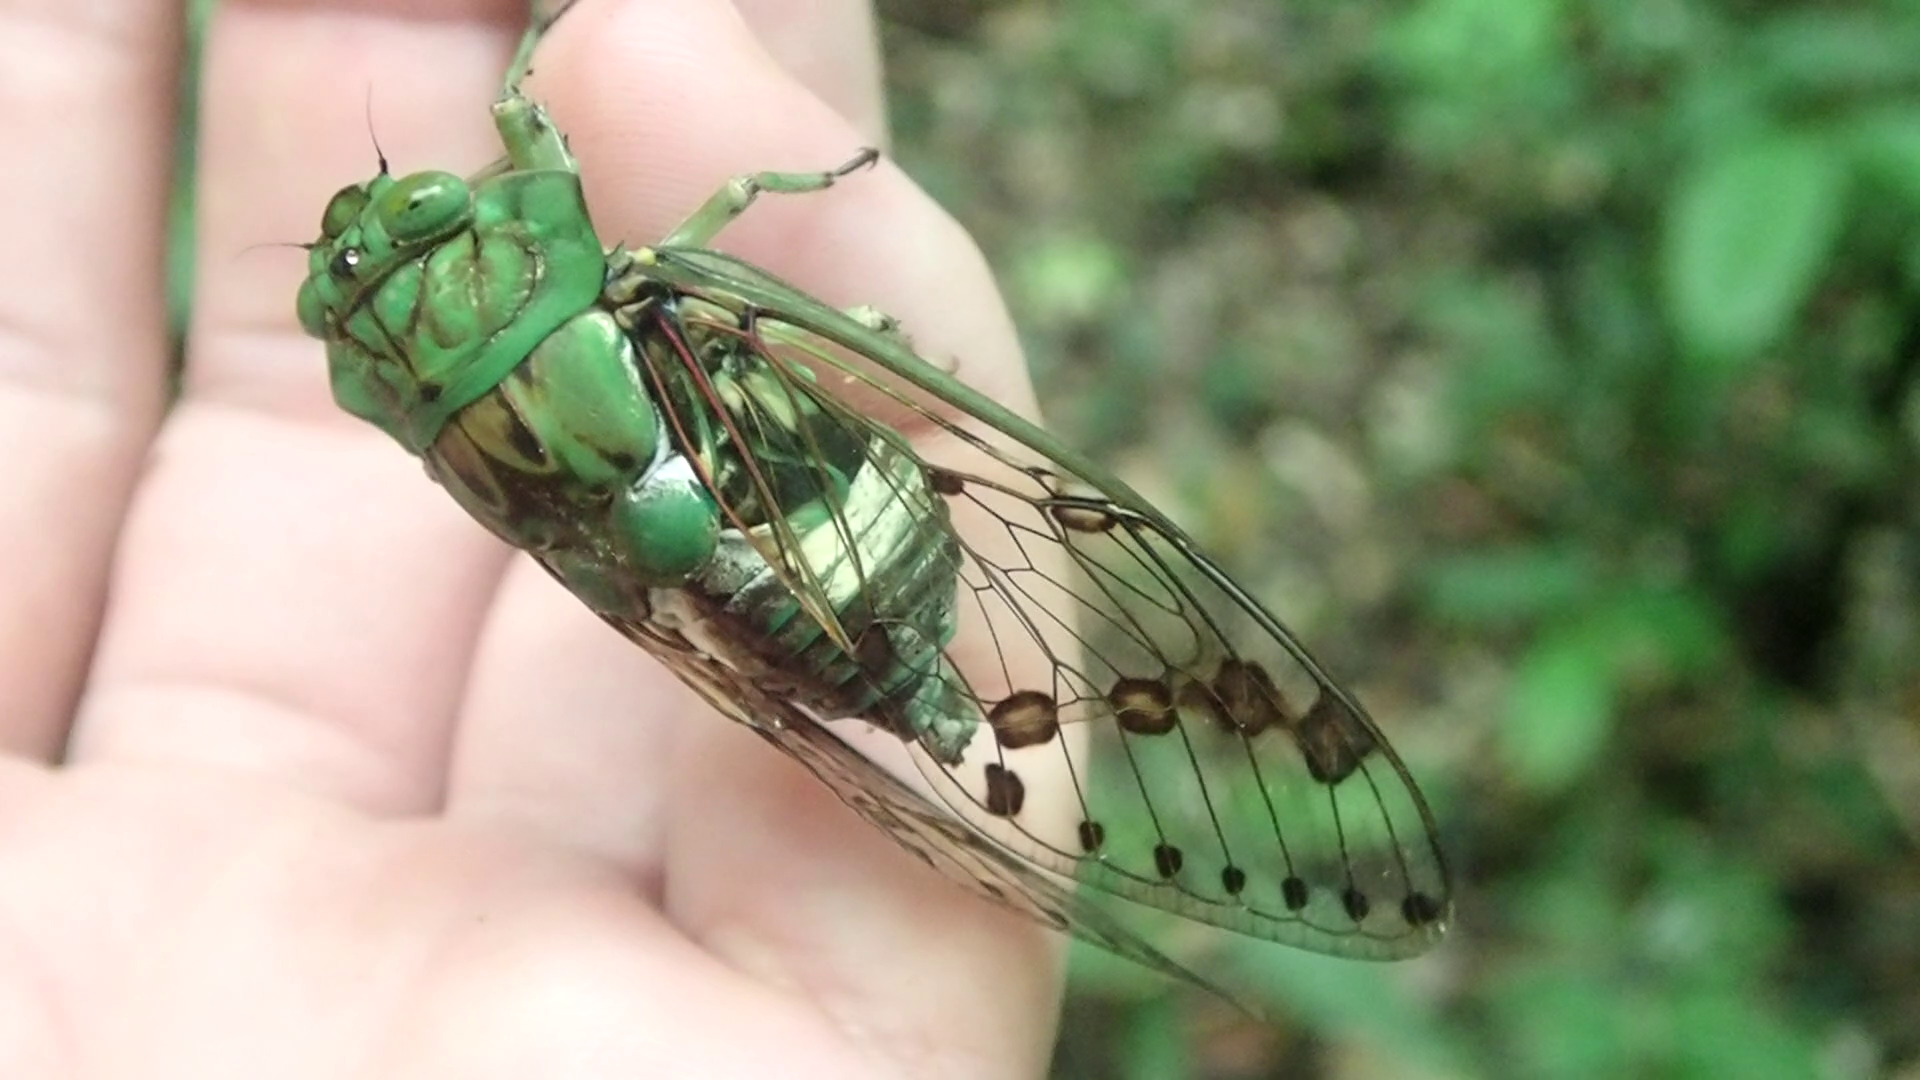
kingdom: Animalia
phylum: Arthropoda
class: Insecta
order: Hemiptera
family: Cicadidae
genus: Zammara
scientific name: Zammara tympanum
